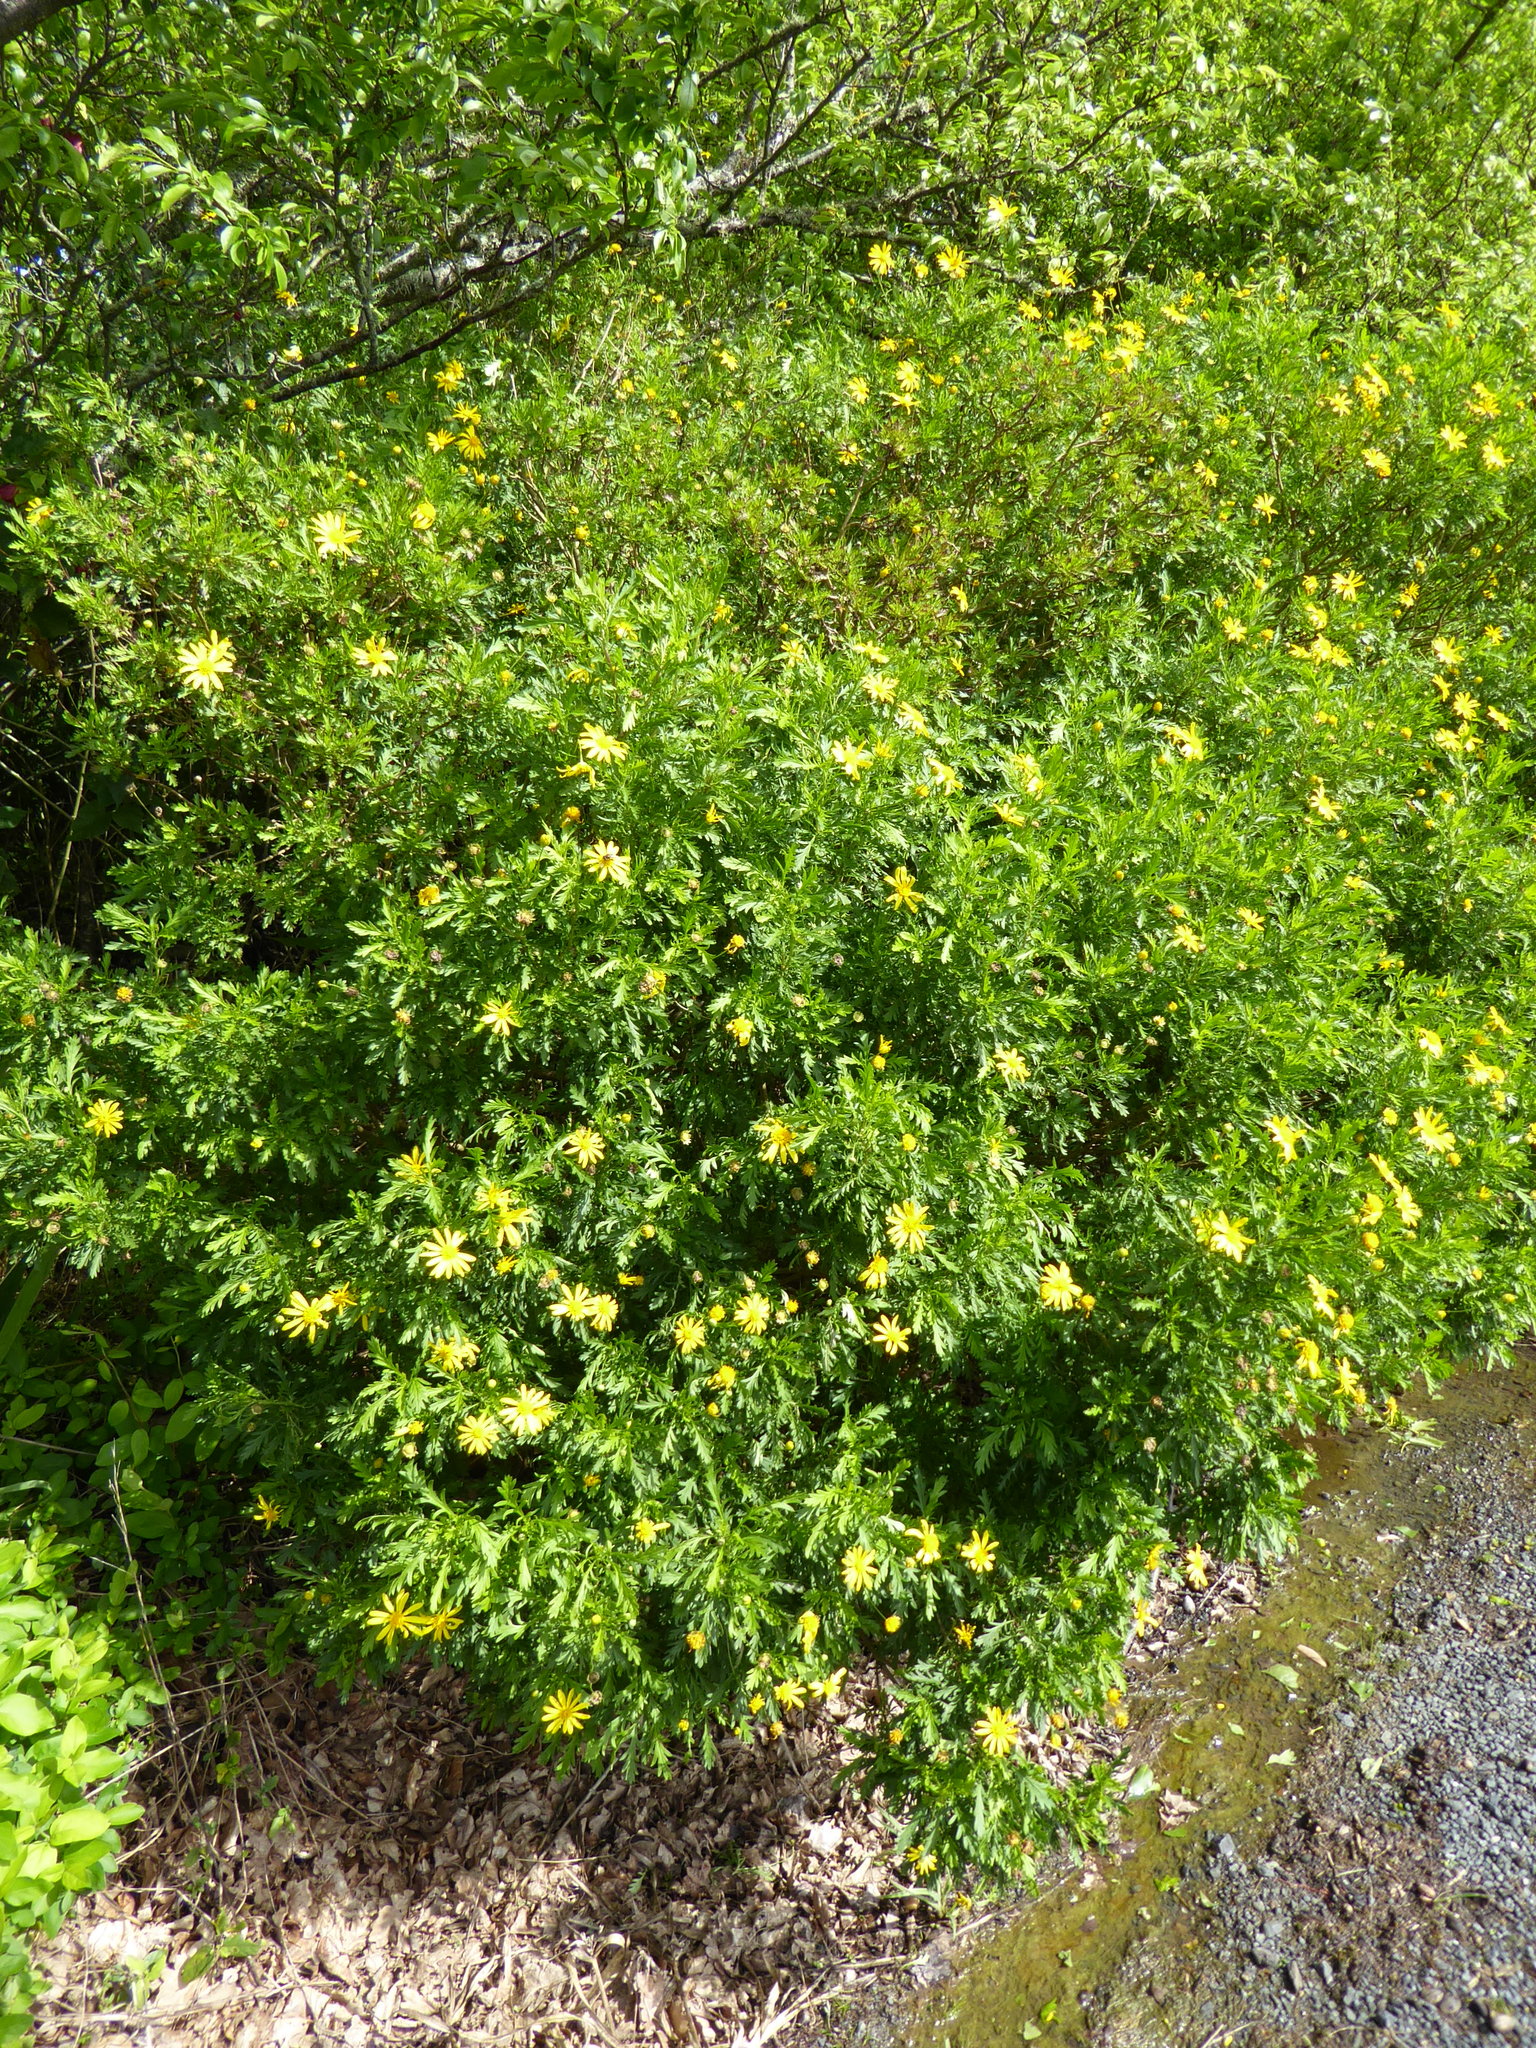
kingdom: Plantae
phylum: Tracheophyta
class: Magnoliopsida
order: Asterales
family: Asteraceae
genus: Euryops
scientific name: Euryops chrysanthemoides
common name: Bull's eye
